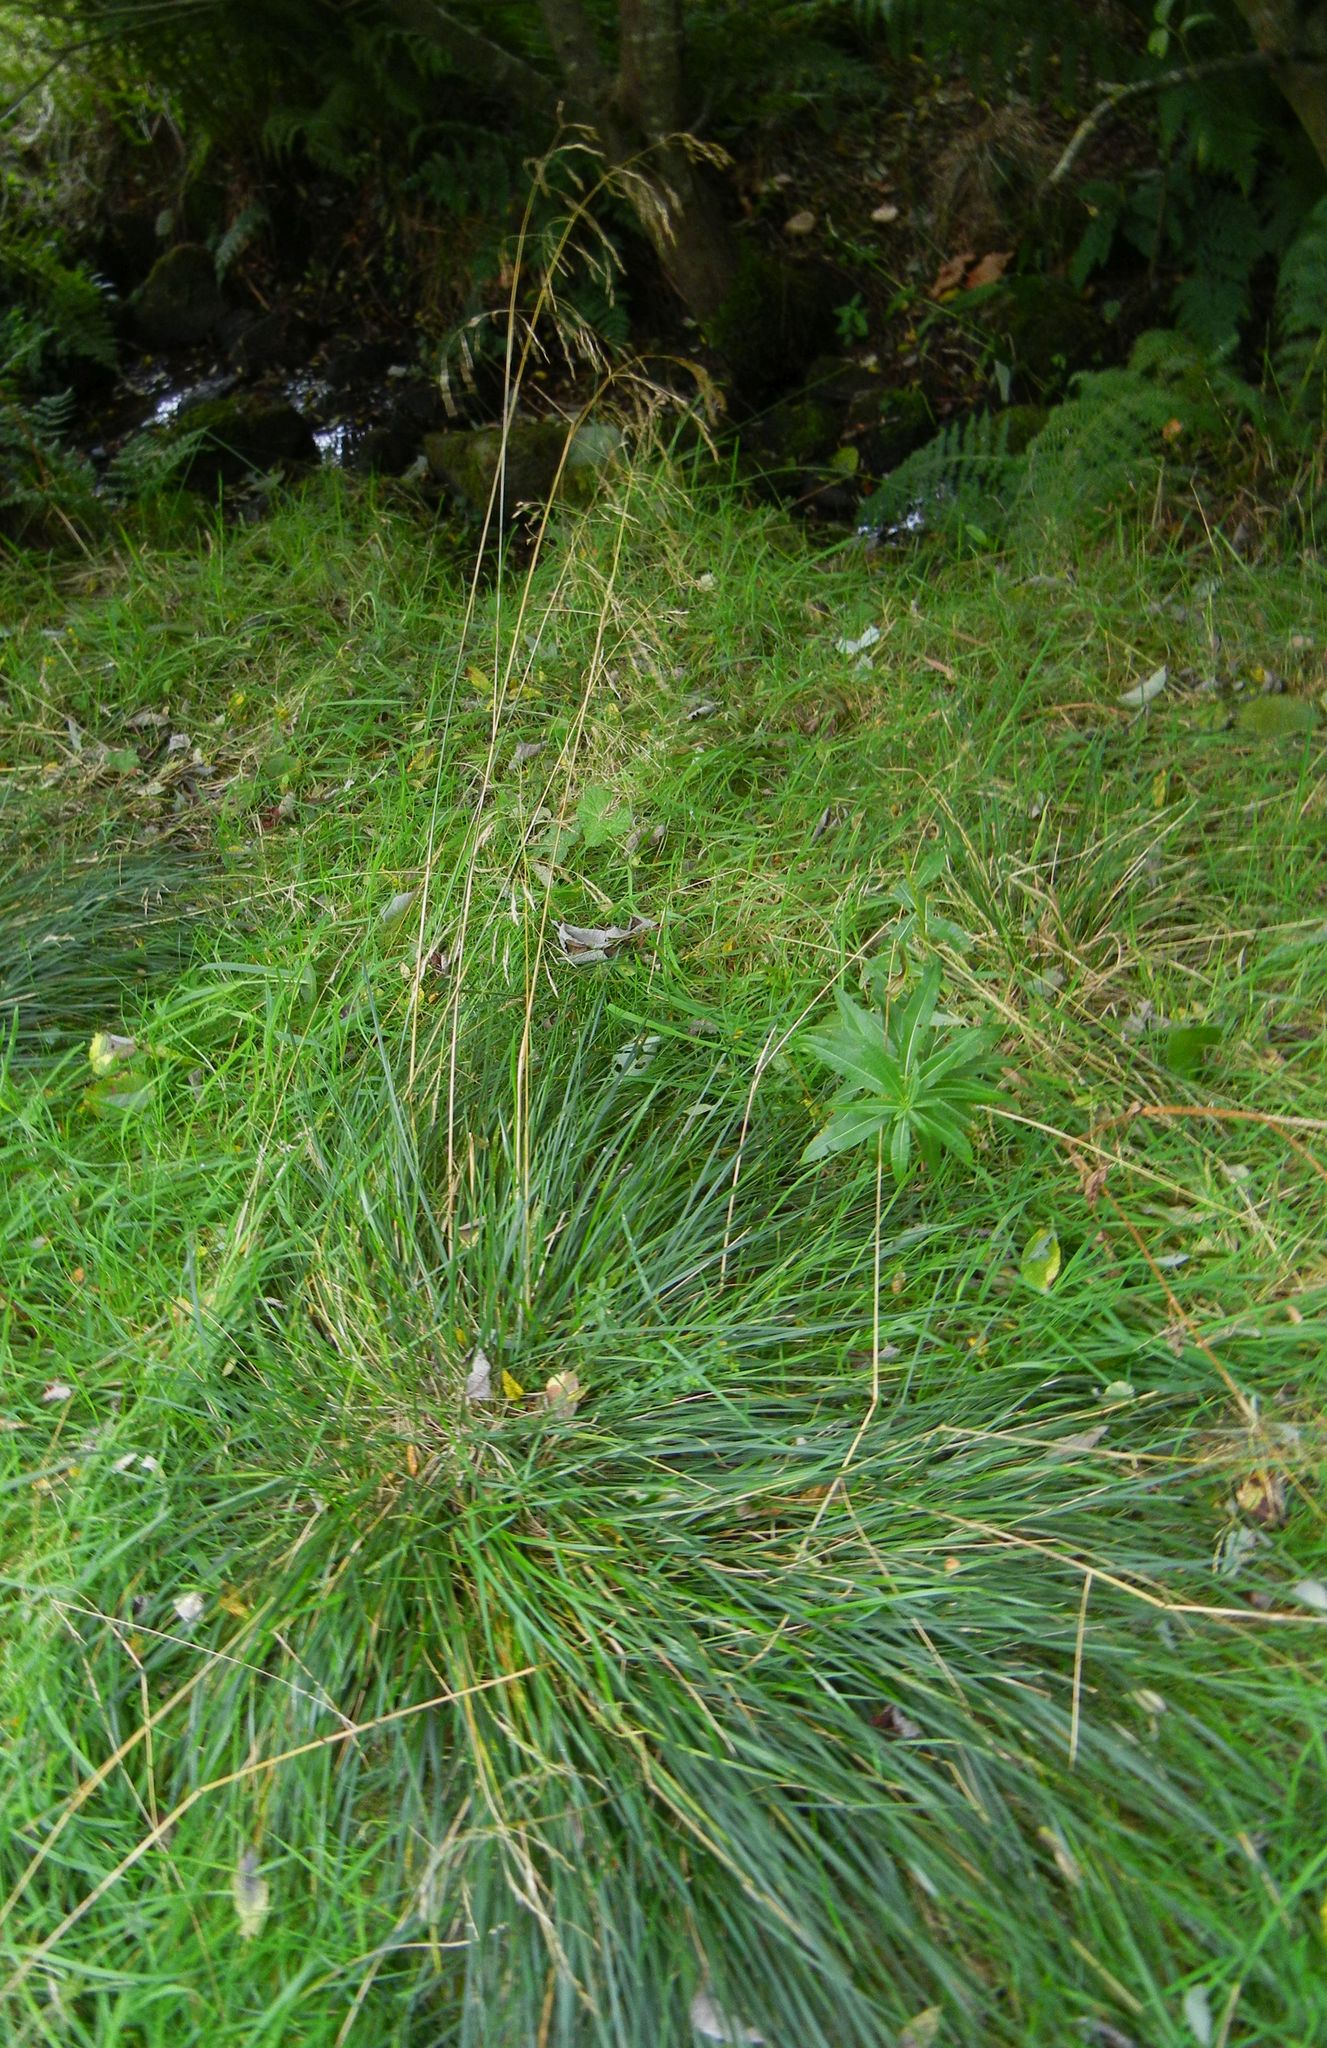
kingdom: Plantae
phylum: Tracheophyta
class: Liliopsida
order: Poales
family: Poaceae
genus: Deschampsia
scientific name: Deschampsia cespitosa
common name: Tufted hair-grass
